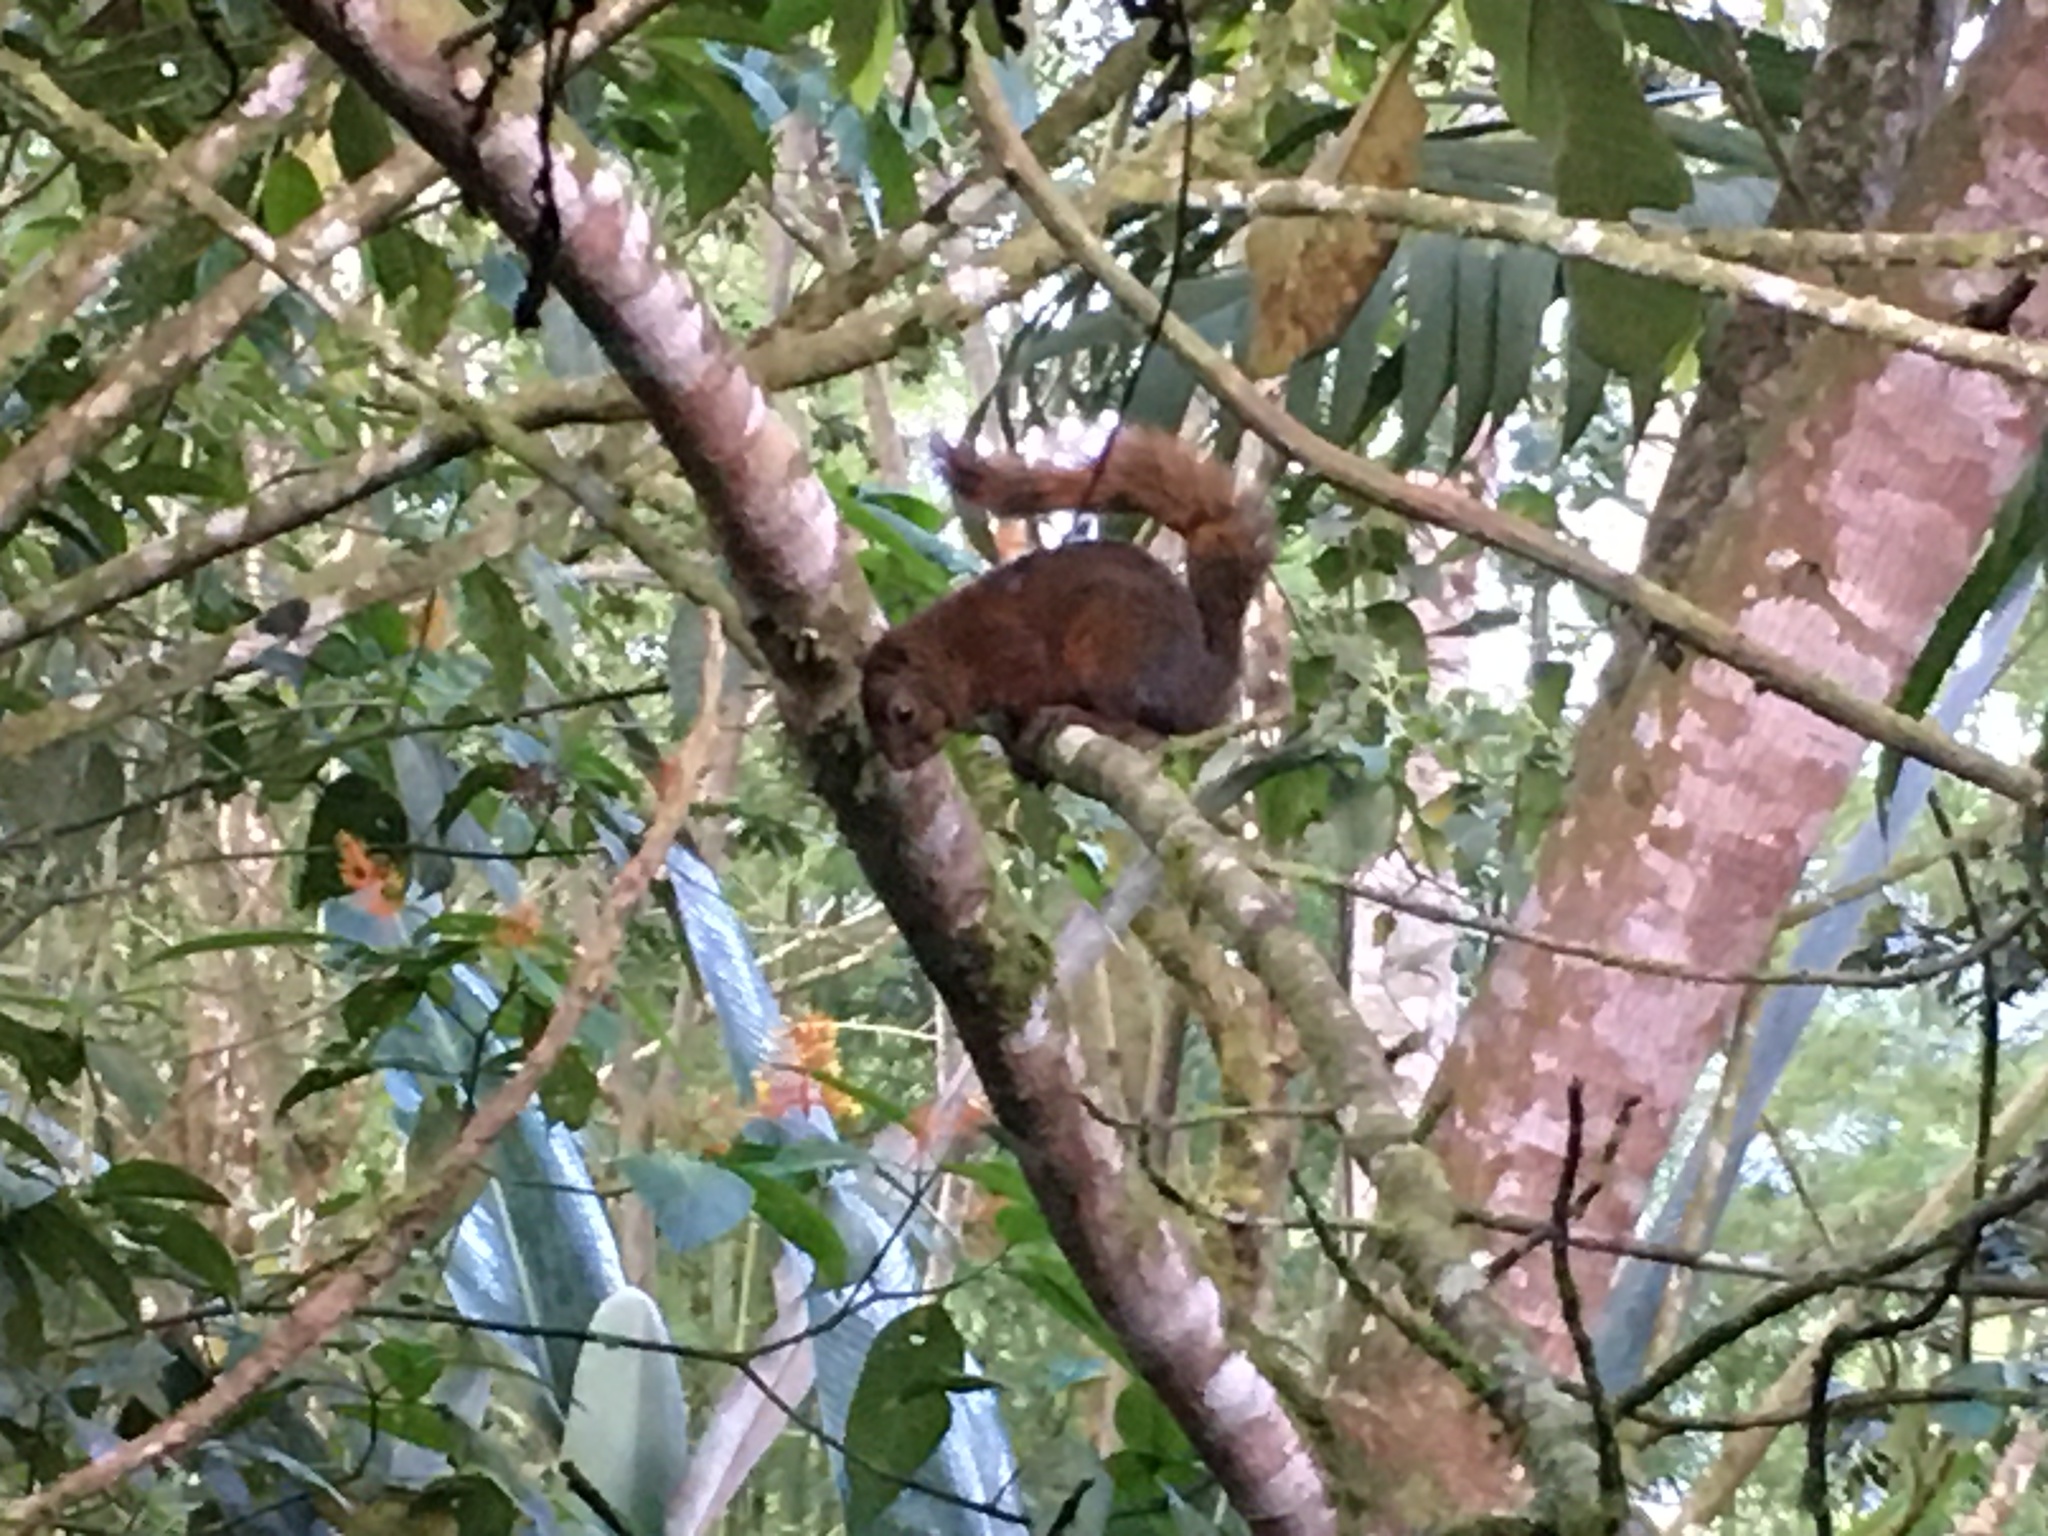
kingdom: Animalia
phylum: Chordata
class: Mammalia
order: Rodentia
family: Sciuridae
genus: Sciurus
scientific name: Sciurus granatensis
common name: Red-tailed squirrel
